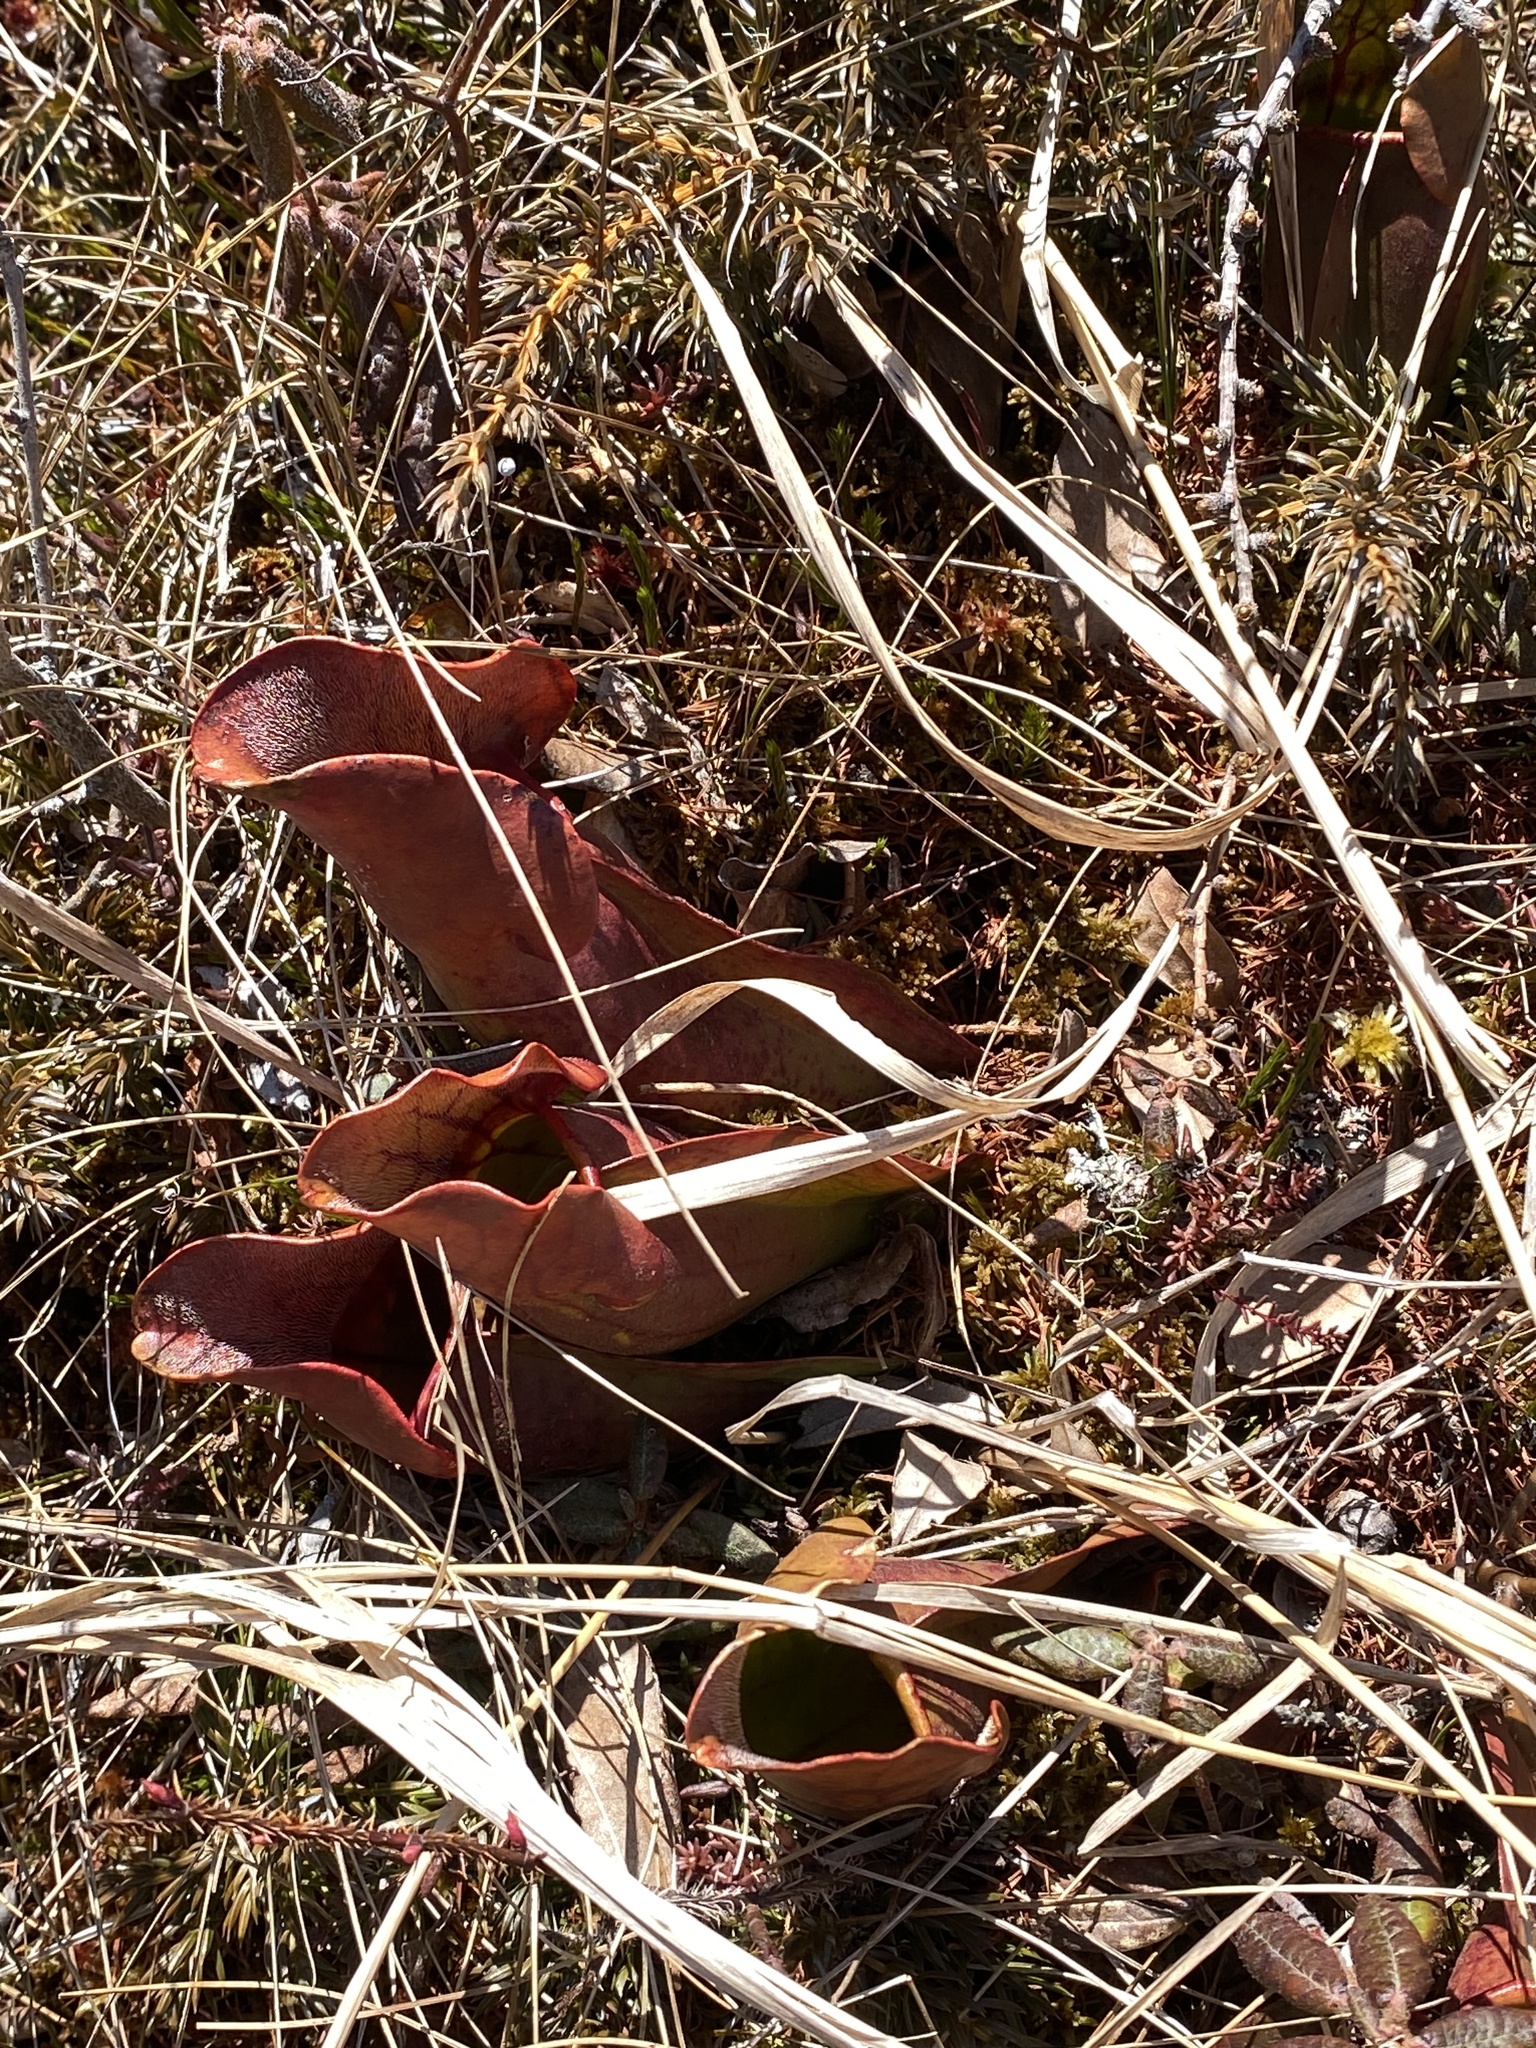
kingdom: Plantae
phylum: Tracheophyta
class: Magnoliopsida
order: Ericales
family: Sarraceniaceae
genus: Sarracenia
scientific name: Sarracenia purpurea
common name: Pitcherplant
